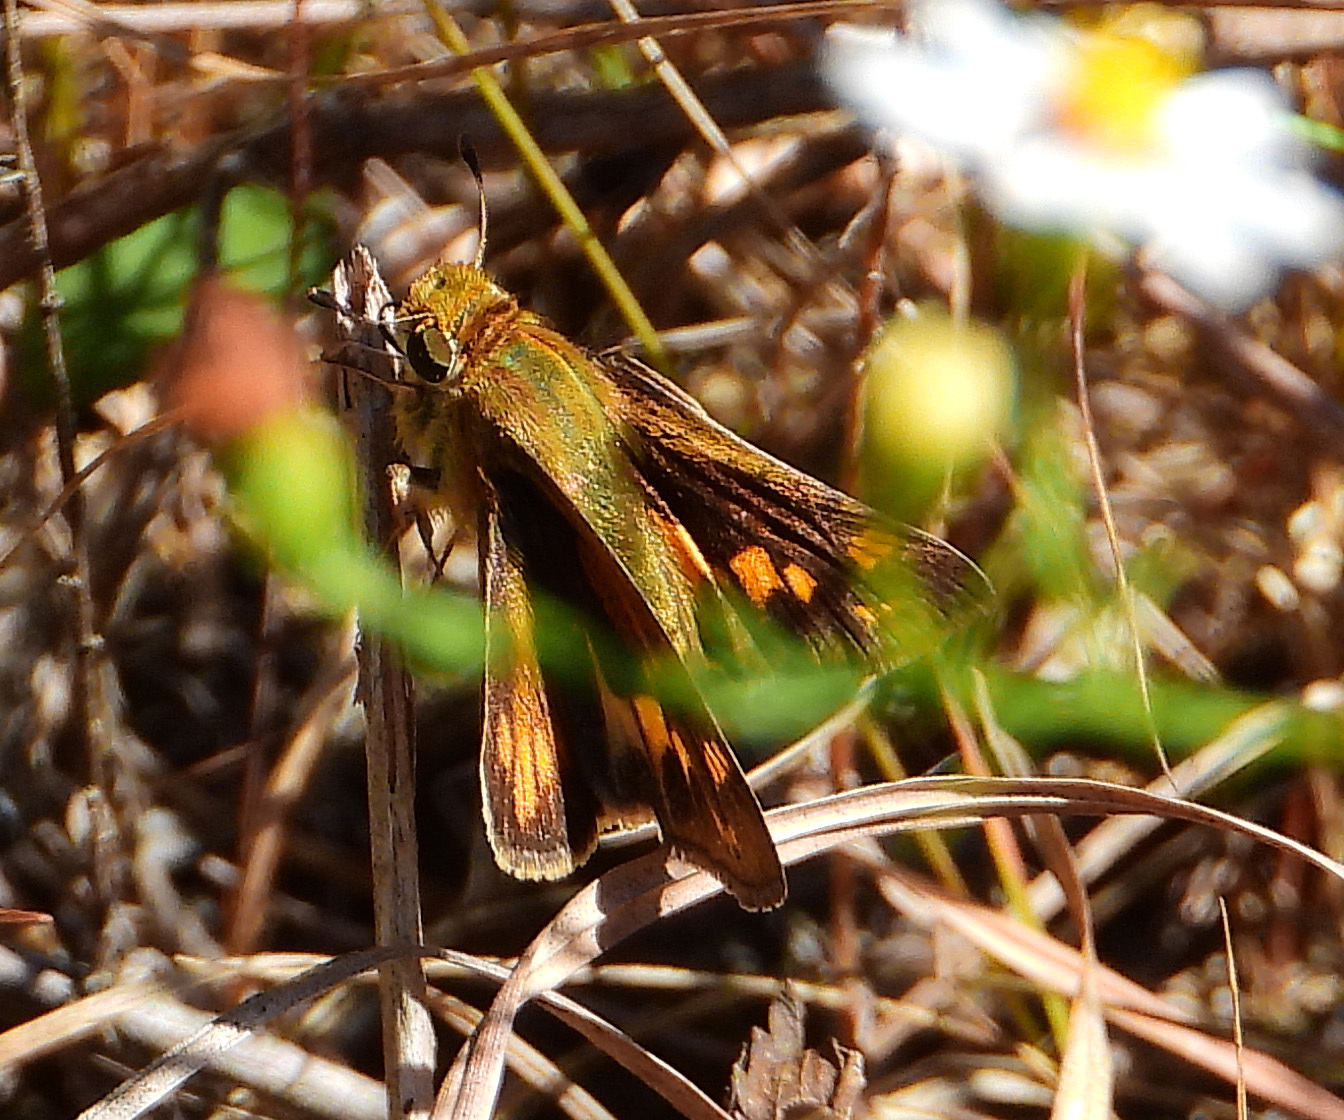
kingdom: Animalia
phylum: Arthropoda
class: Insecta
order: Lepidoptera
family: Hesperiidae
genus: Hylephila
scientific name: Hylephila phyleus
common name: Fiery skipper
